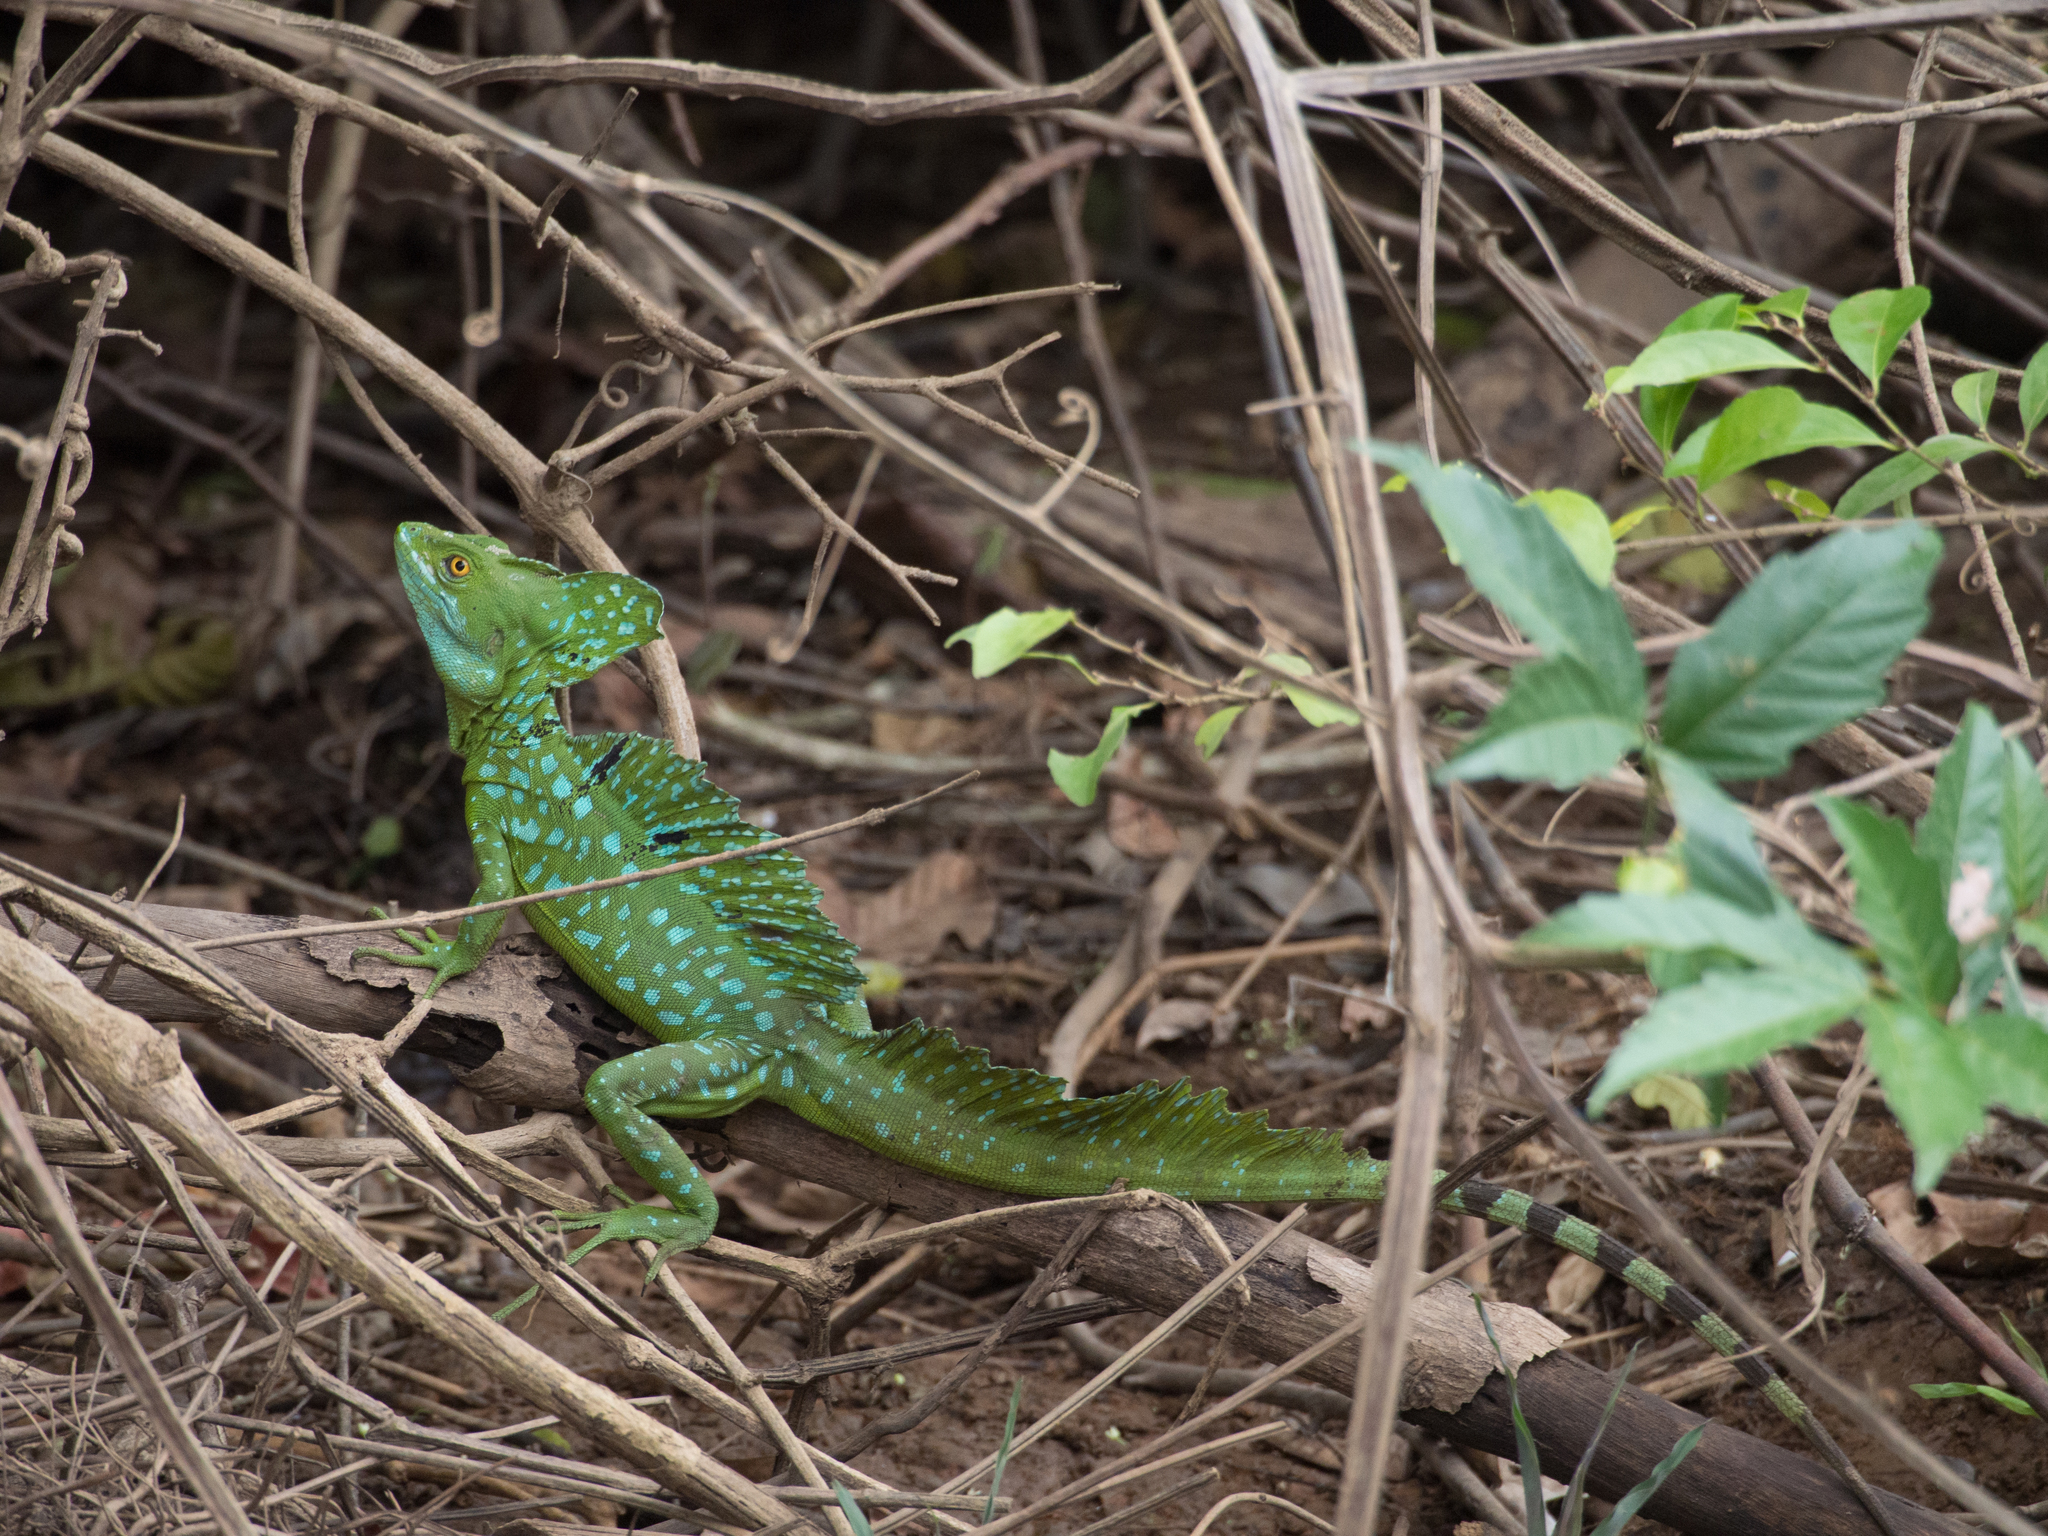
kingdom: Animalia
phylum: Chordata
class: Squamata
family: Corytophanidae
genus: Basiliscus
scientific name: Basiliscus plumifrons
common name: Green basilisk
